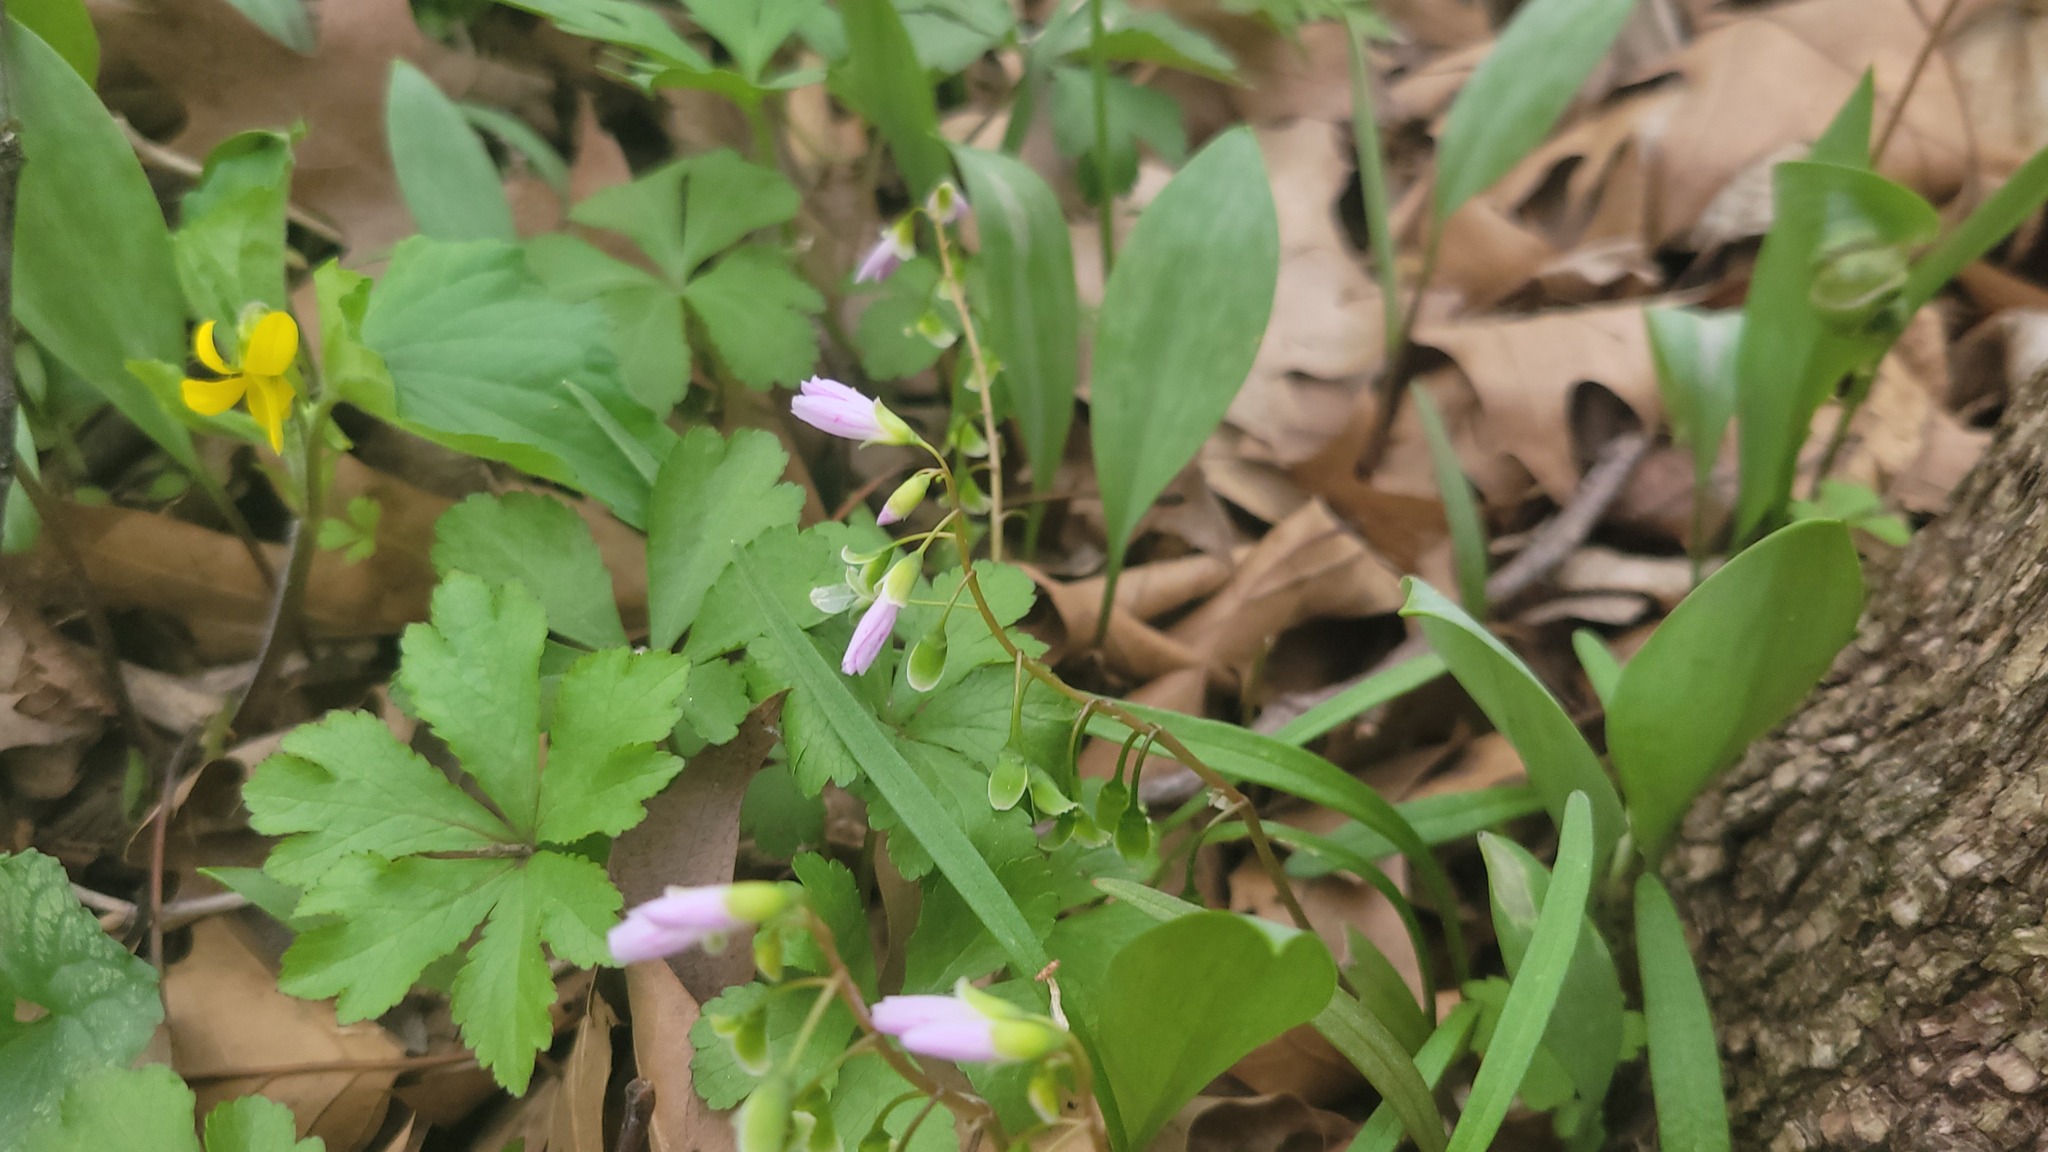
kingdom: Plantae
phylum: Tracheophyta
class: Magnoliopsida
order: Caryophyllales
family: Montiaceae
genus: Claytonia
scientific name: Claytonia virginica
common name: Virginia springbeauty
